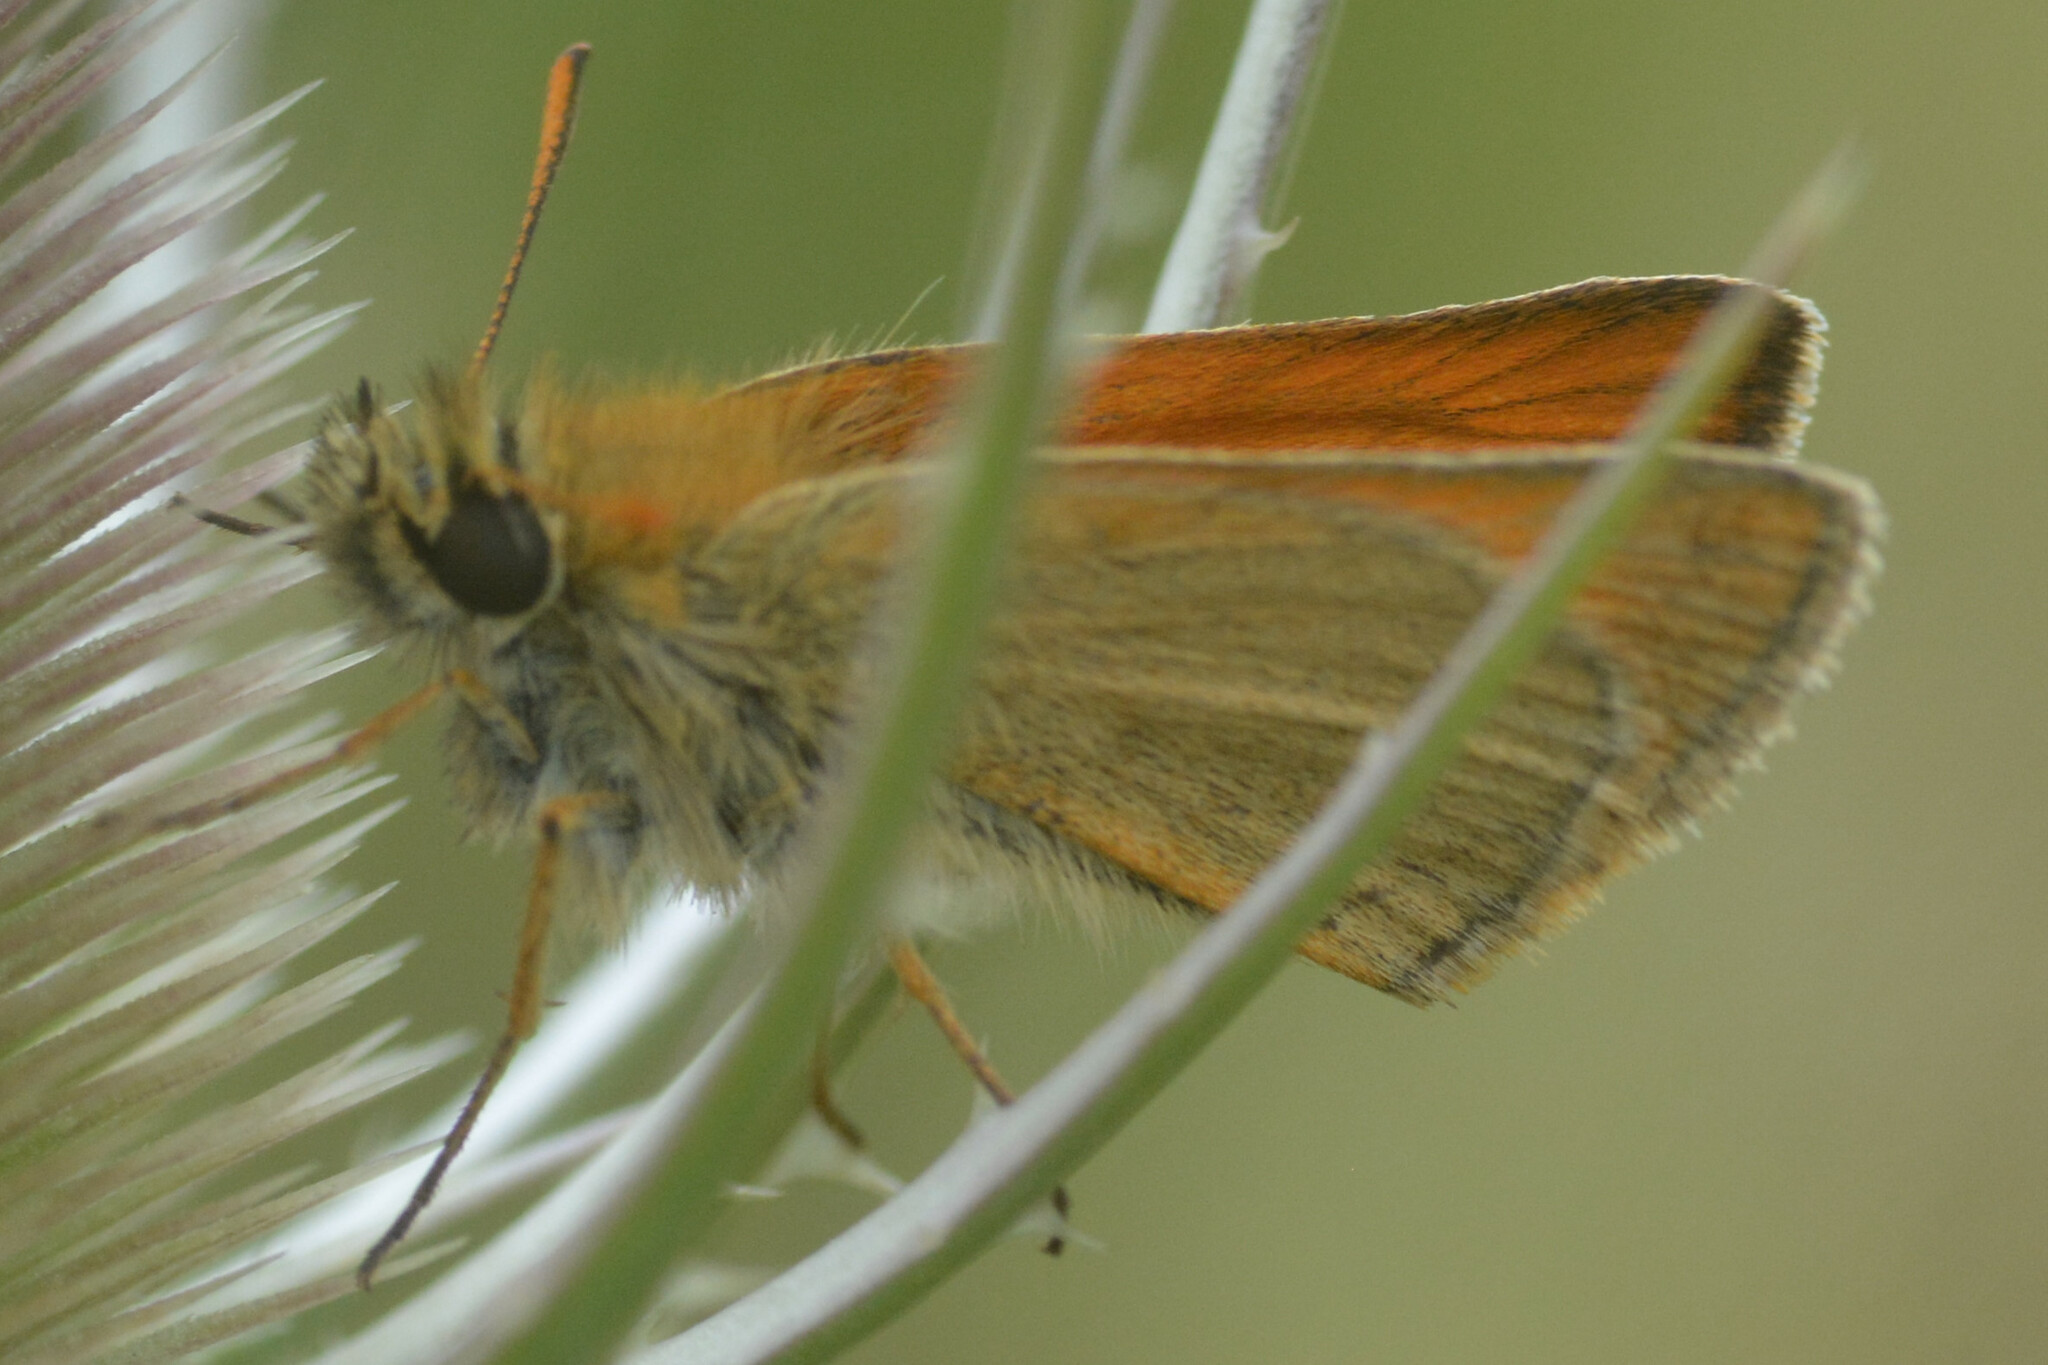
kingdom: Animalia
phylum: Arthropoda
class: Insecta
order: Lepidoptera
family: Hesperiidae
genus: Thymelicus
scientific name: Thymelicus sylvestris
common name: Small skipper
